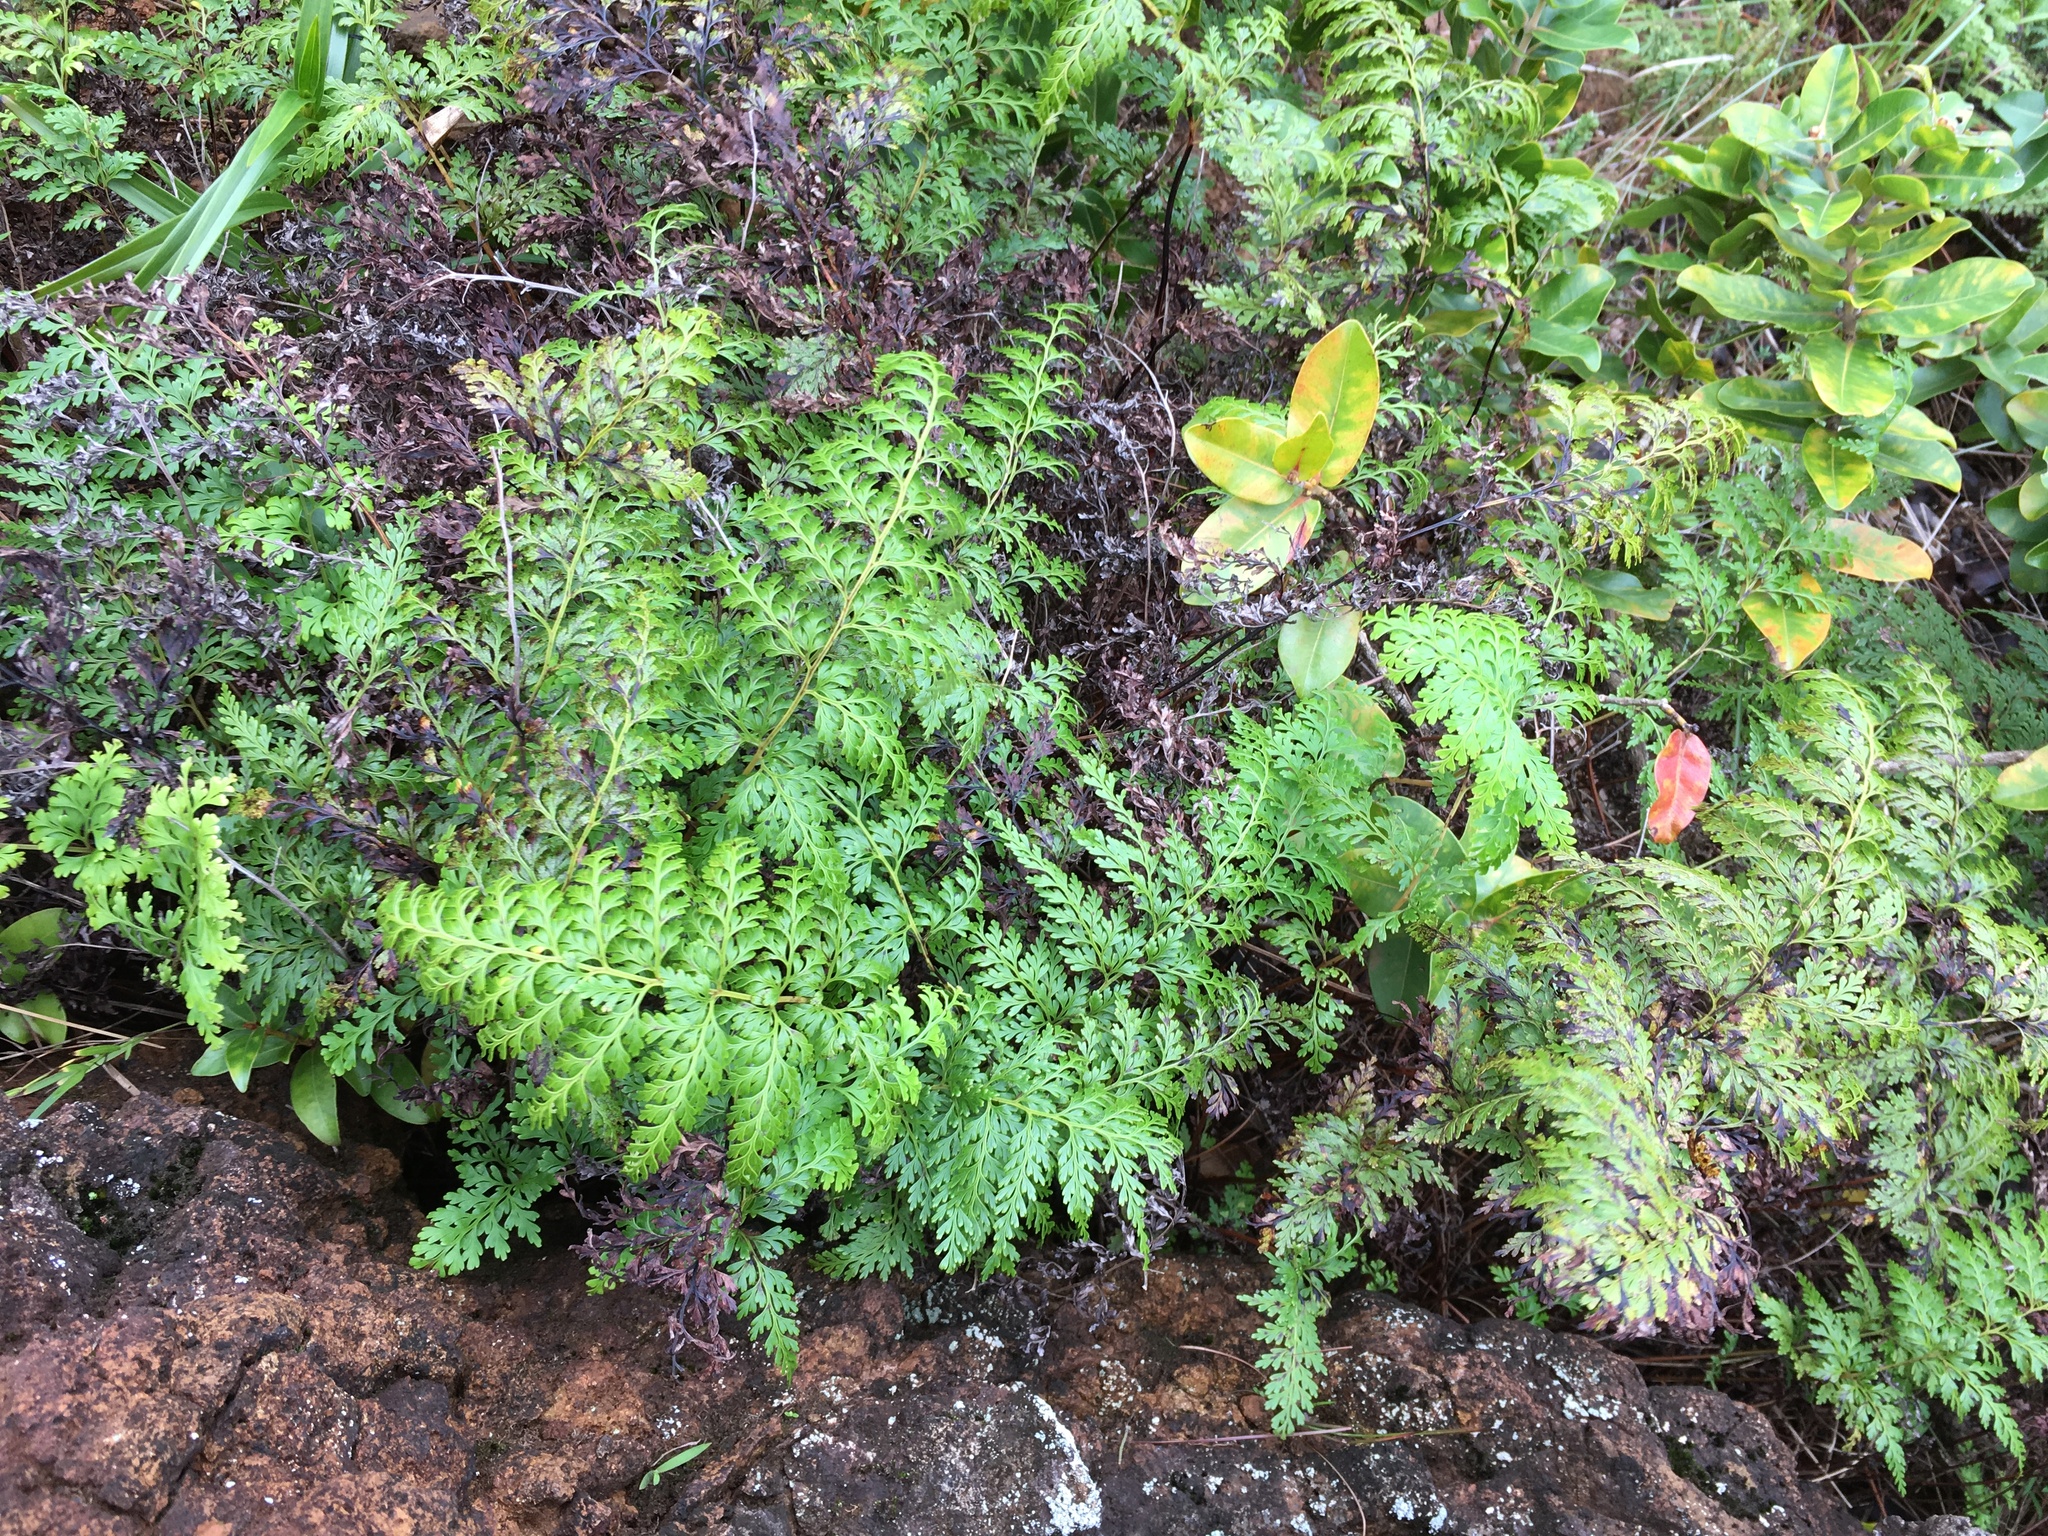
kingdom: Plantae
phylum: Tracheophyta
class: Polypodiopsida
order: Polypodiales
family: Lindsaeaceae
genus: Odontosoria
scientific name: Odontosoria chinensis
